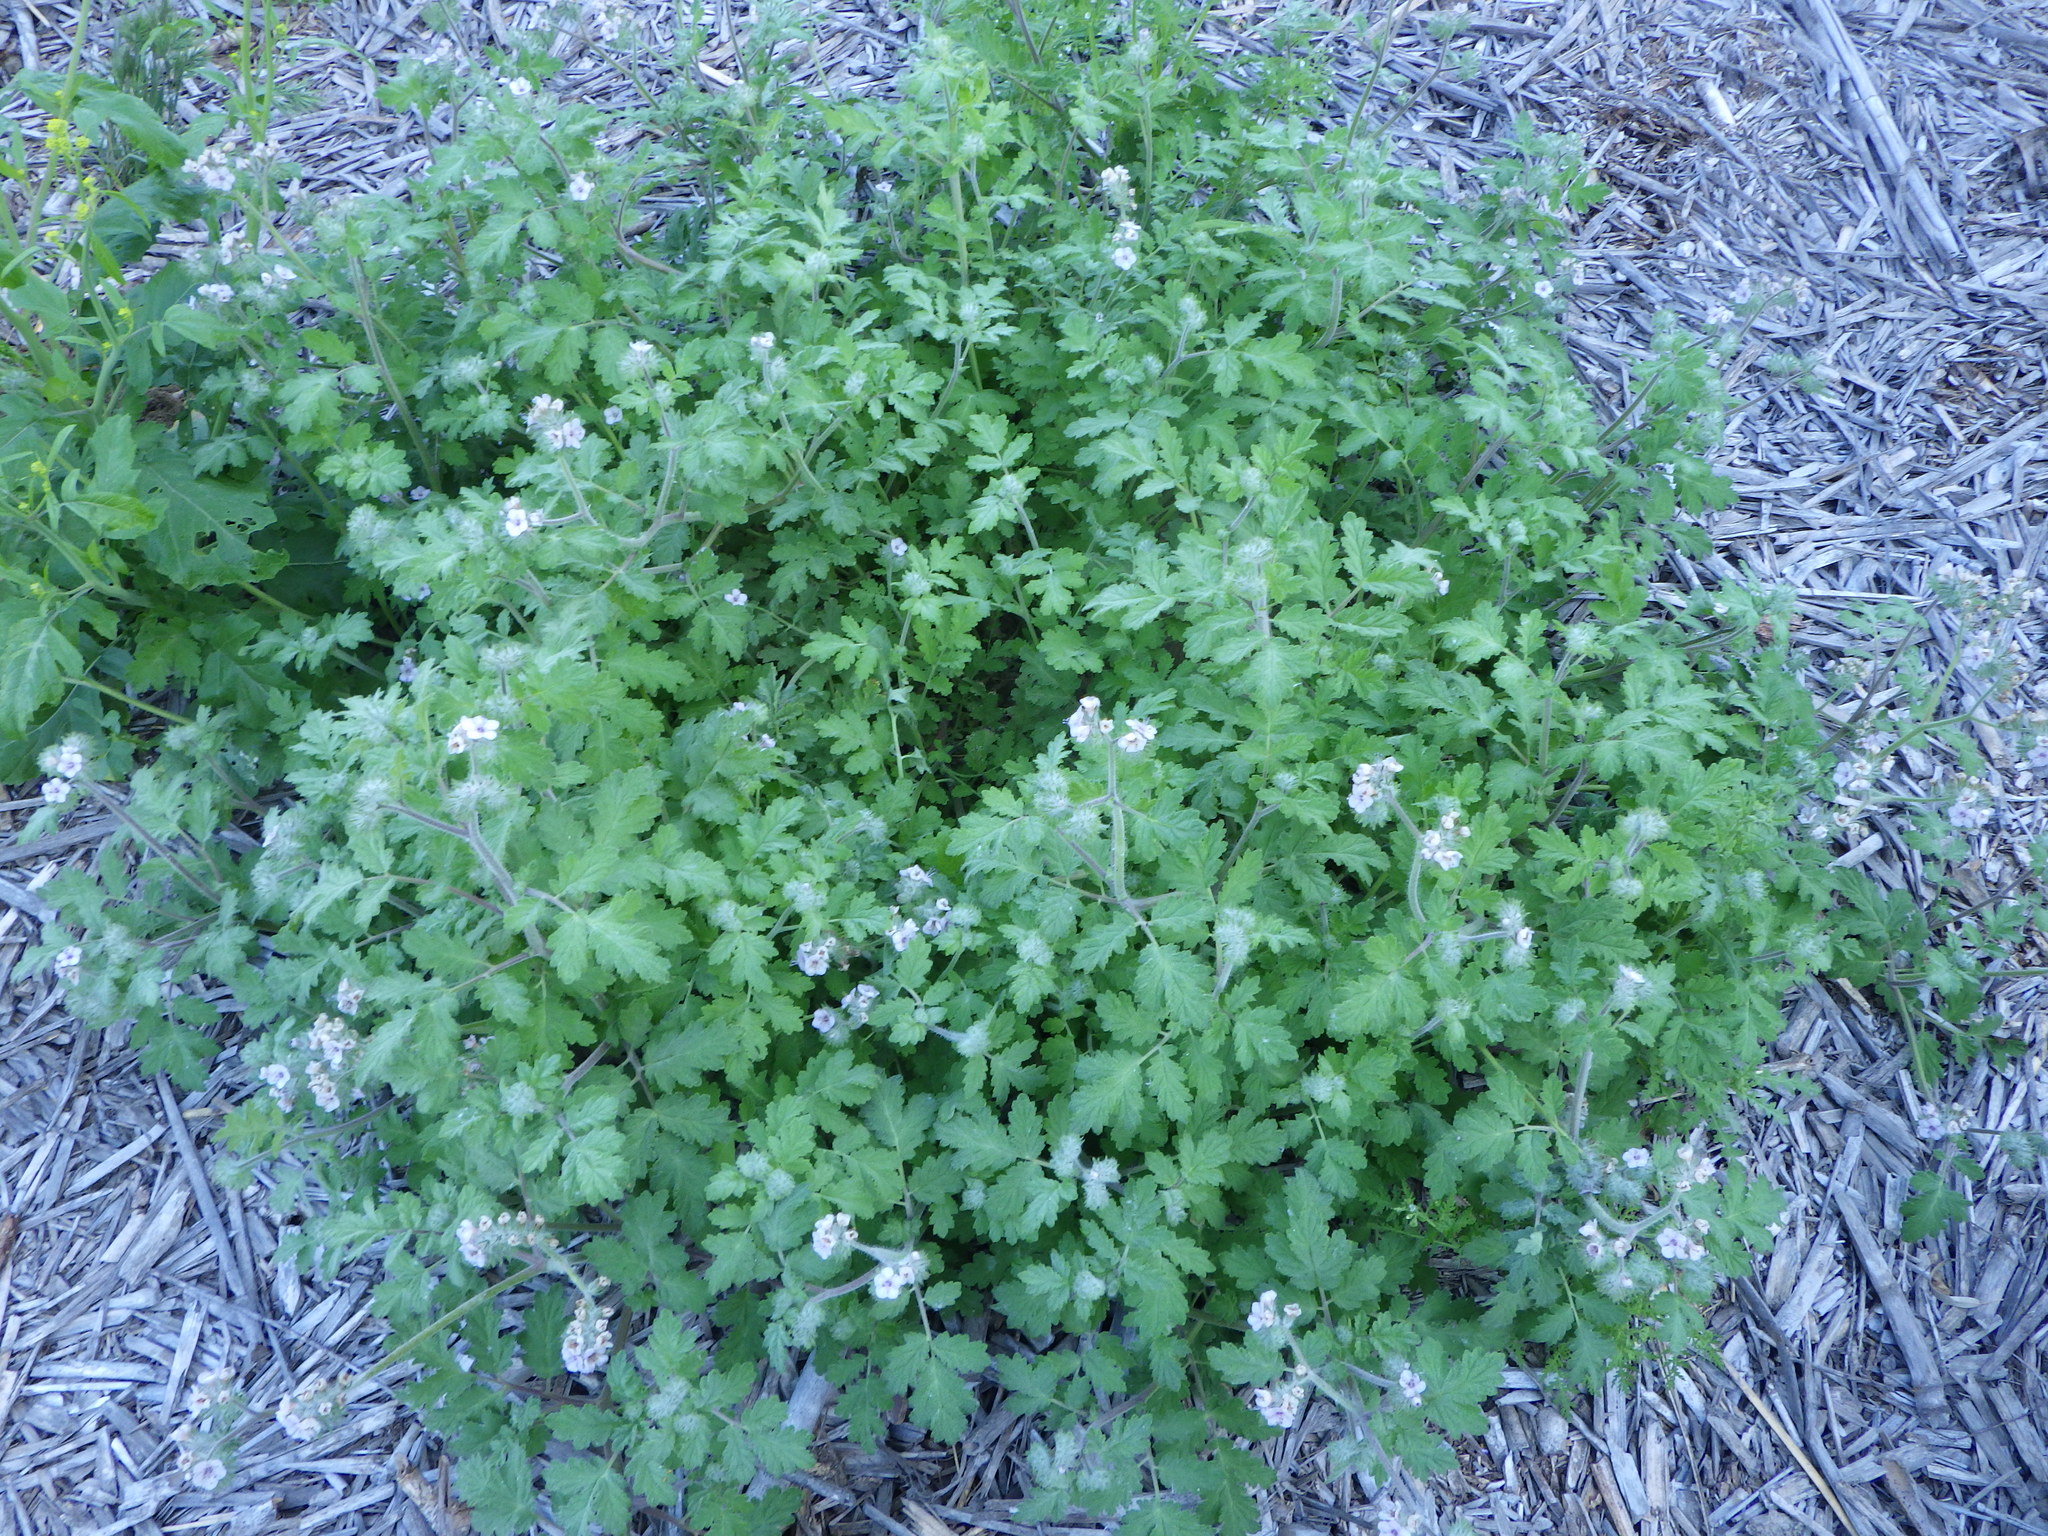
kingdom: Plantae
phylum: Tracheophyta
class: Magnoliopsida
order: Boraginales
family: Hydrophyllaceae
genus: Phacelia
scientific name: Phacelia cicutaria
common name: Caterpillar phacelia
